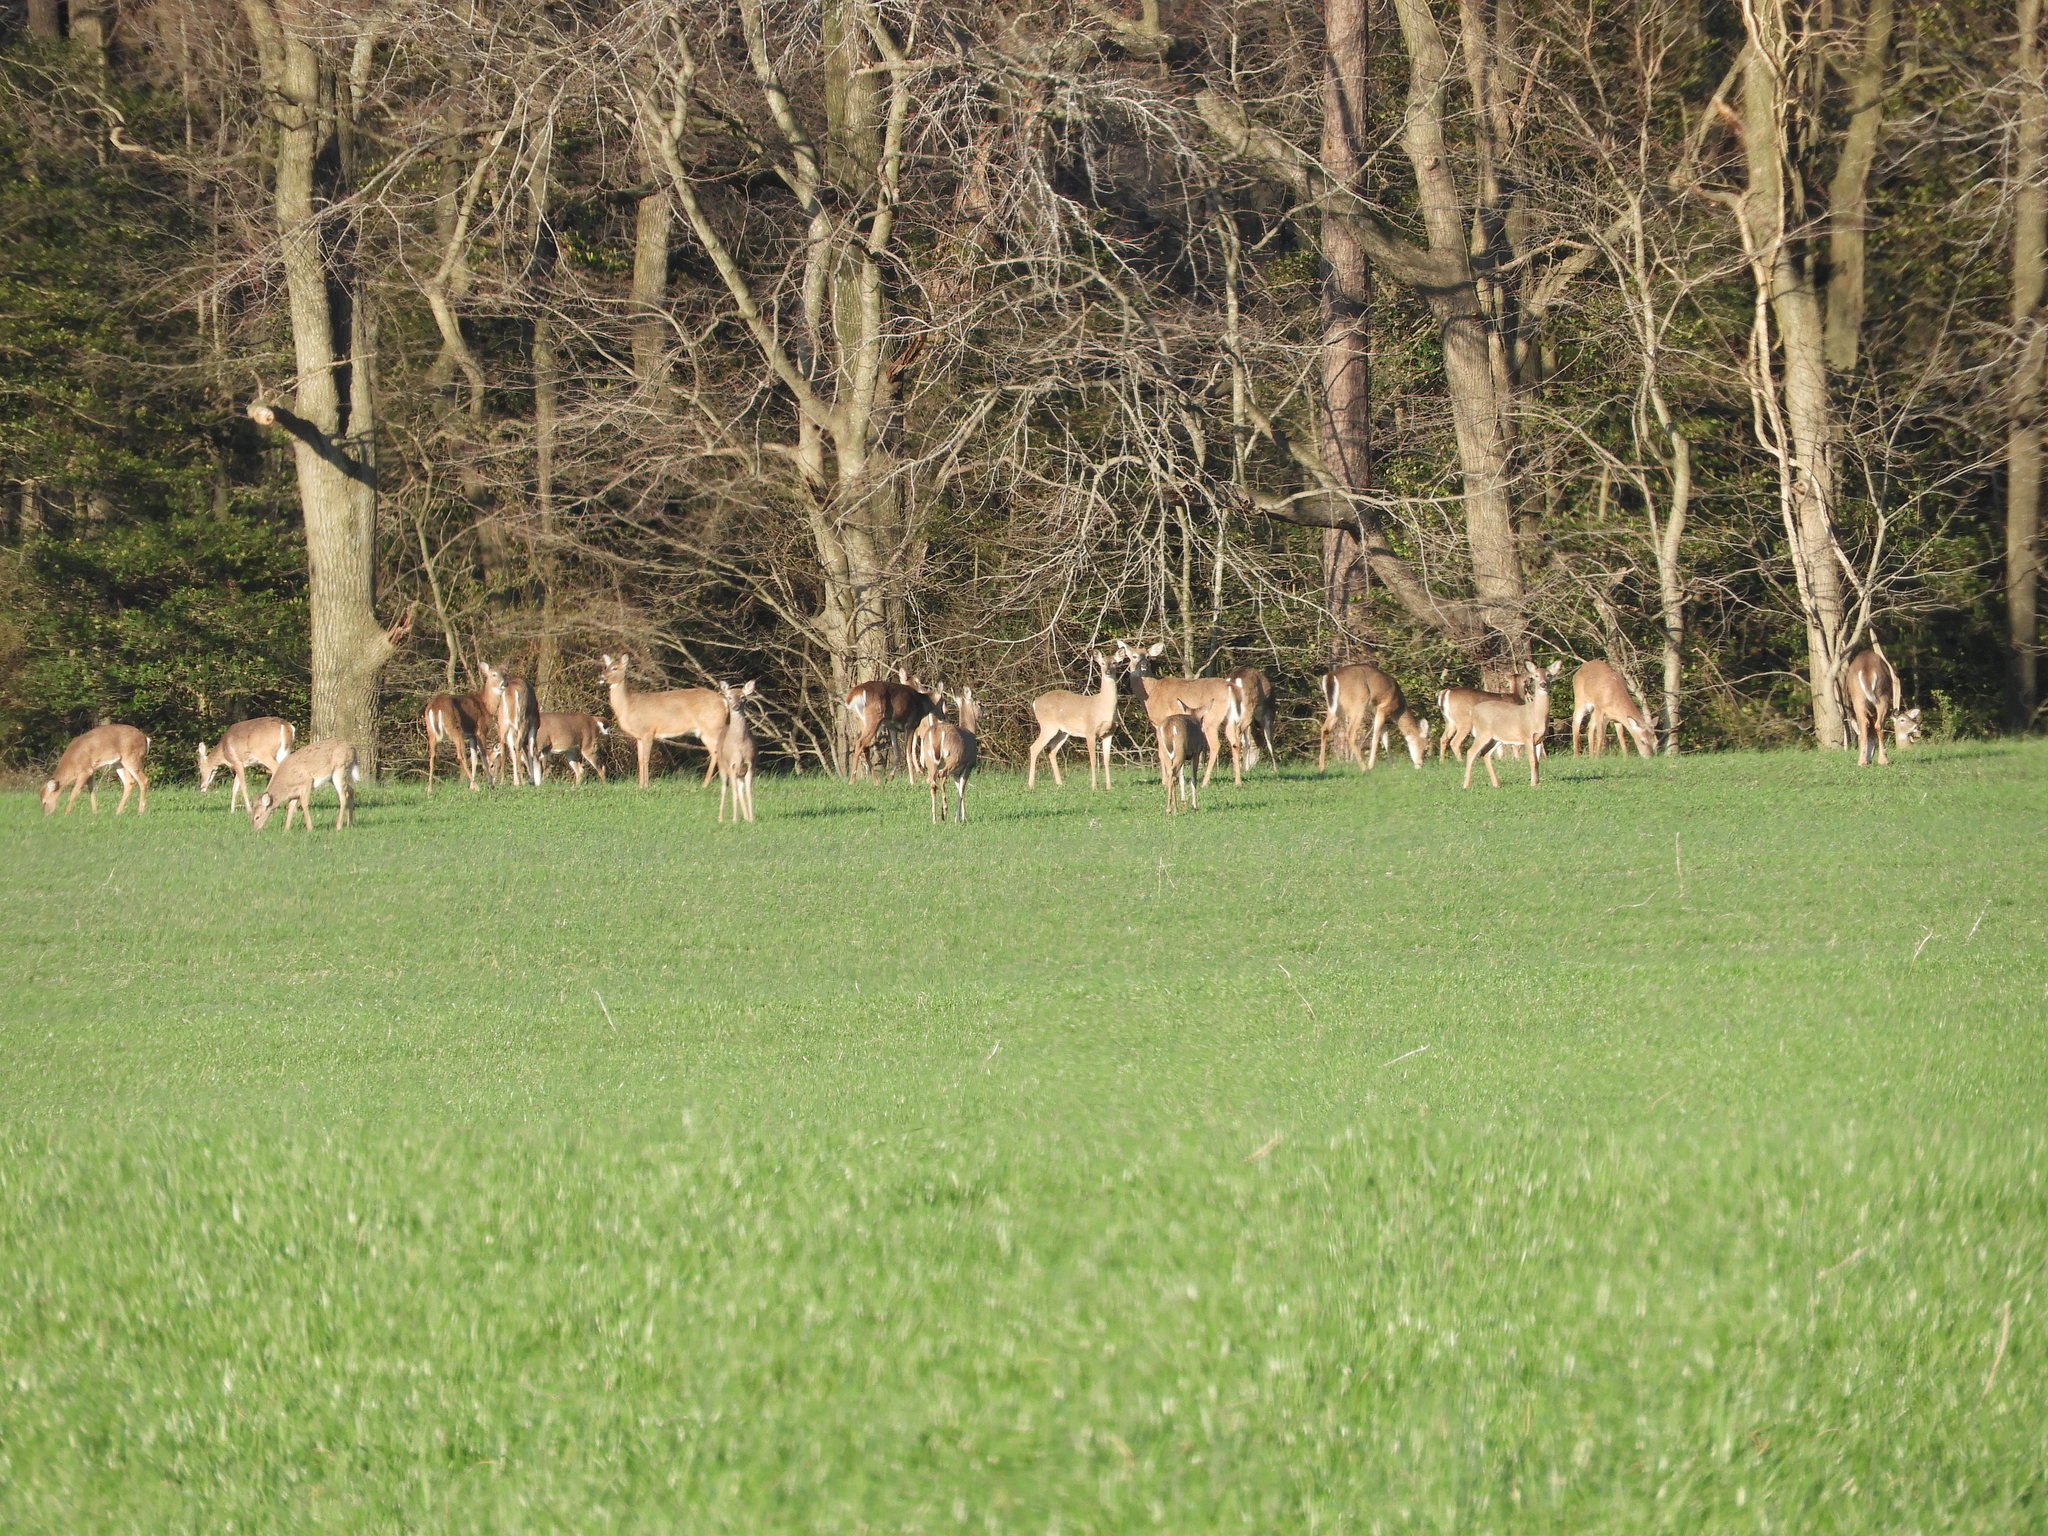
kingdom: Animalia
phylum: Chordata
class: Mammalia
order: Artiodactyla
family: Cervidae
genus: Odocoileus
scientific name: Odocoileus virginianus
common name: White-tailed deer
